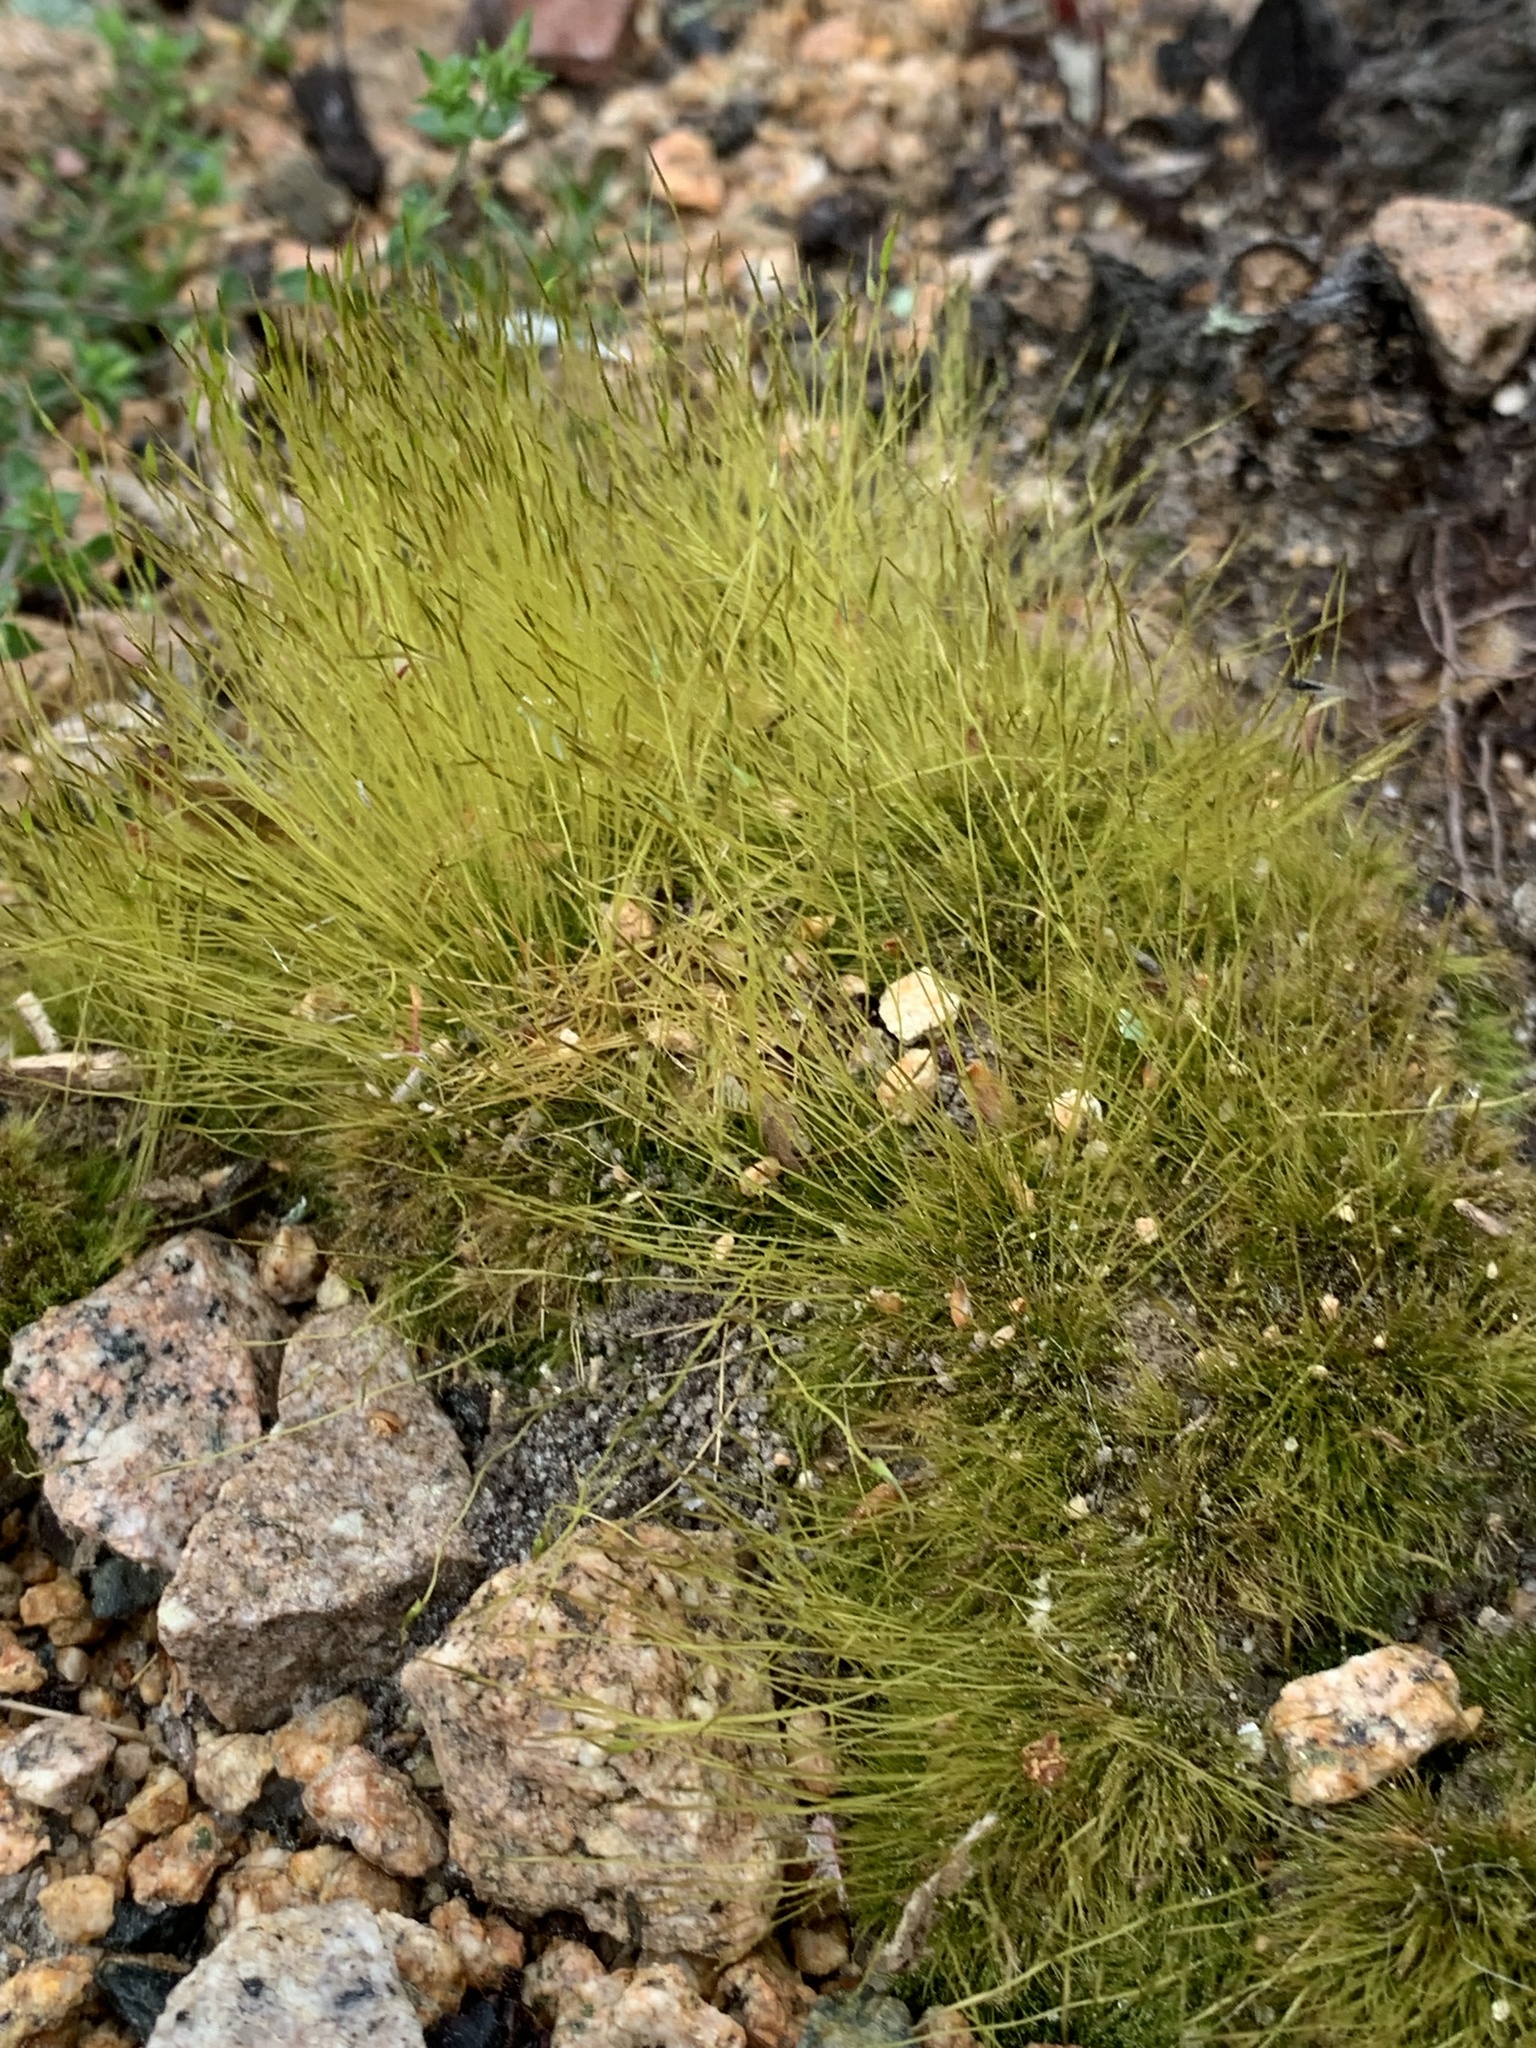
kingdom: Plantae
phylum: Bryophyta
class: Bryopsida
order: Dicranales
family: Ditrichaceae
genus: Ditrichum
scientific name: Ditrichum pallidum
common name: Pale cow-hair moss
